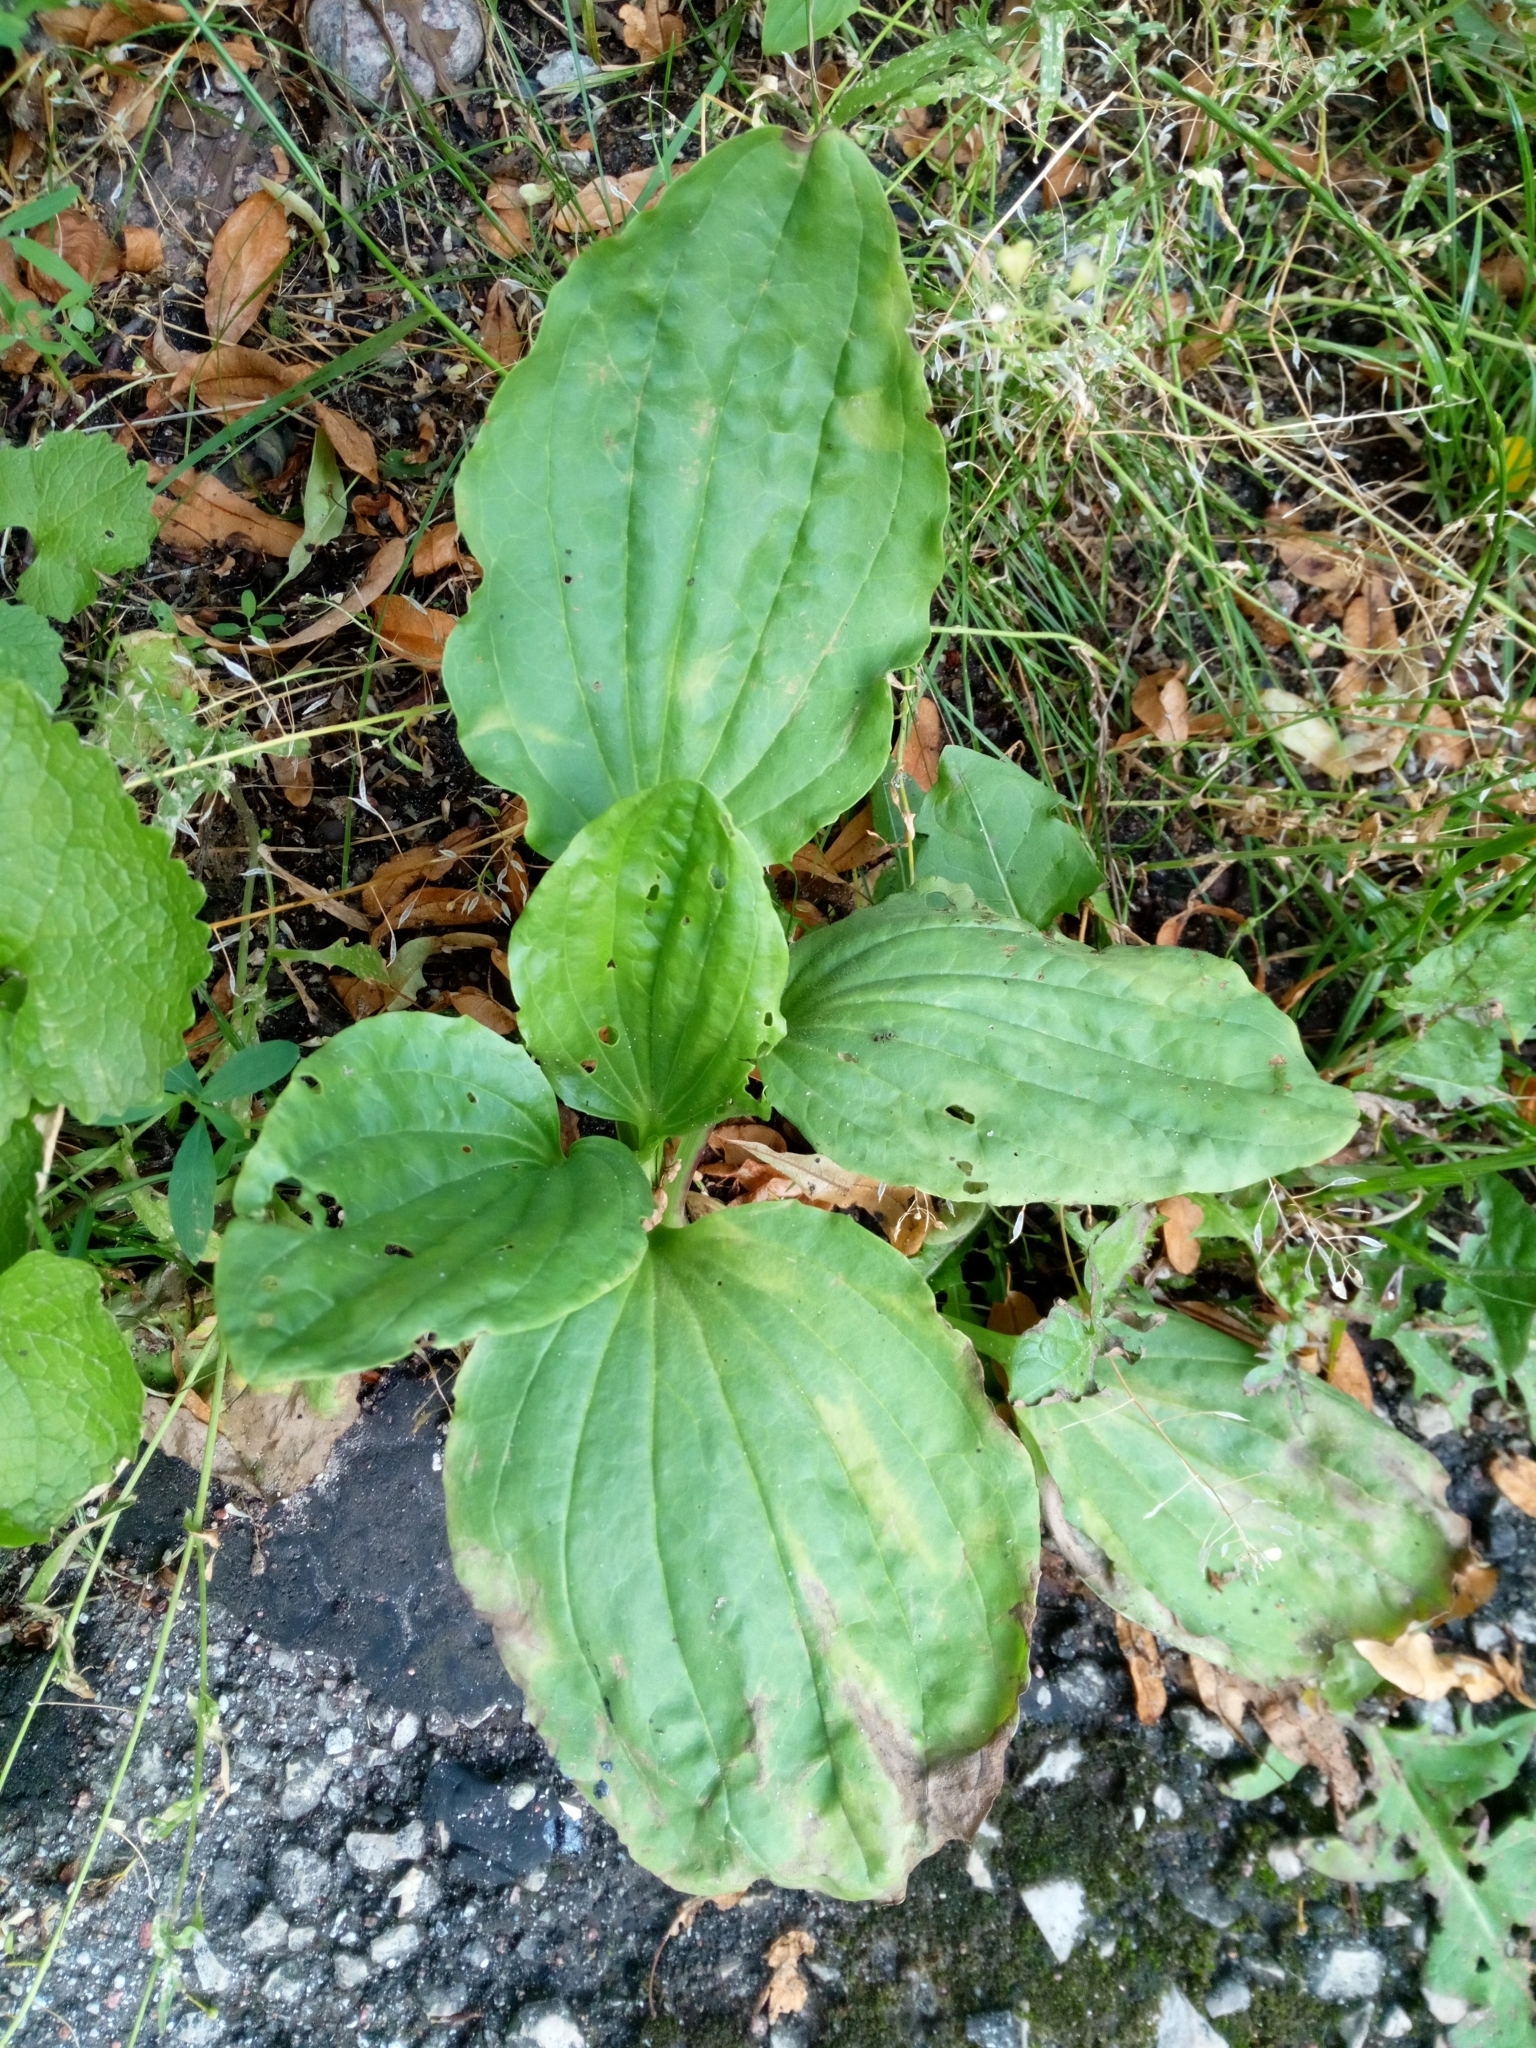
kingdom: Plantae
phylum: Tracheophyta
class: Magnoliopsida
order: Lamiales
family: Plantaginaceae
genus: Plantago
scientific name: Plantago major
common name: Common plantain
